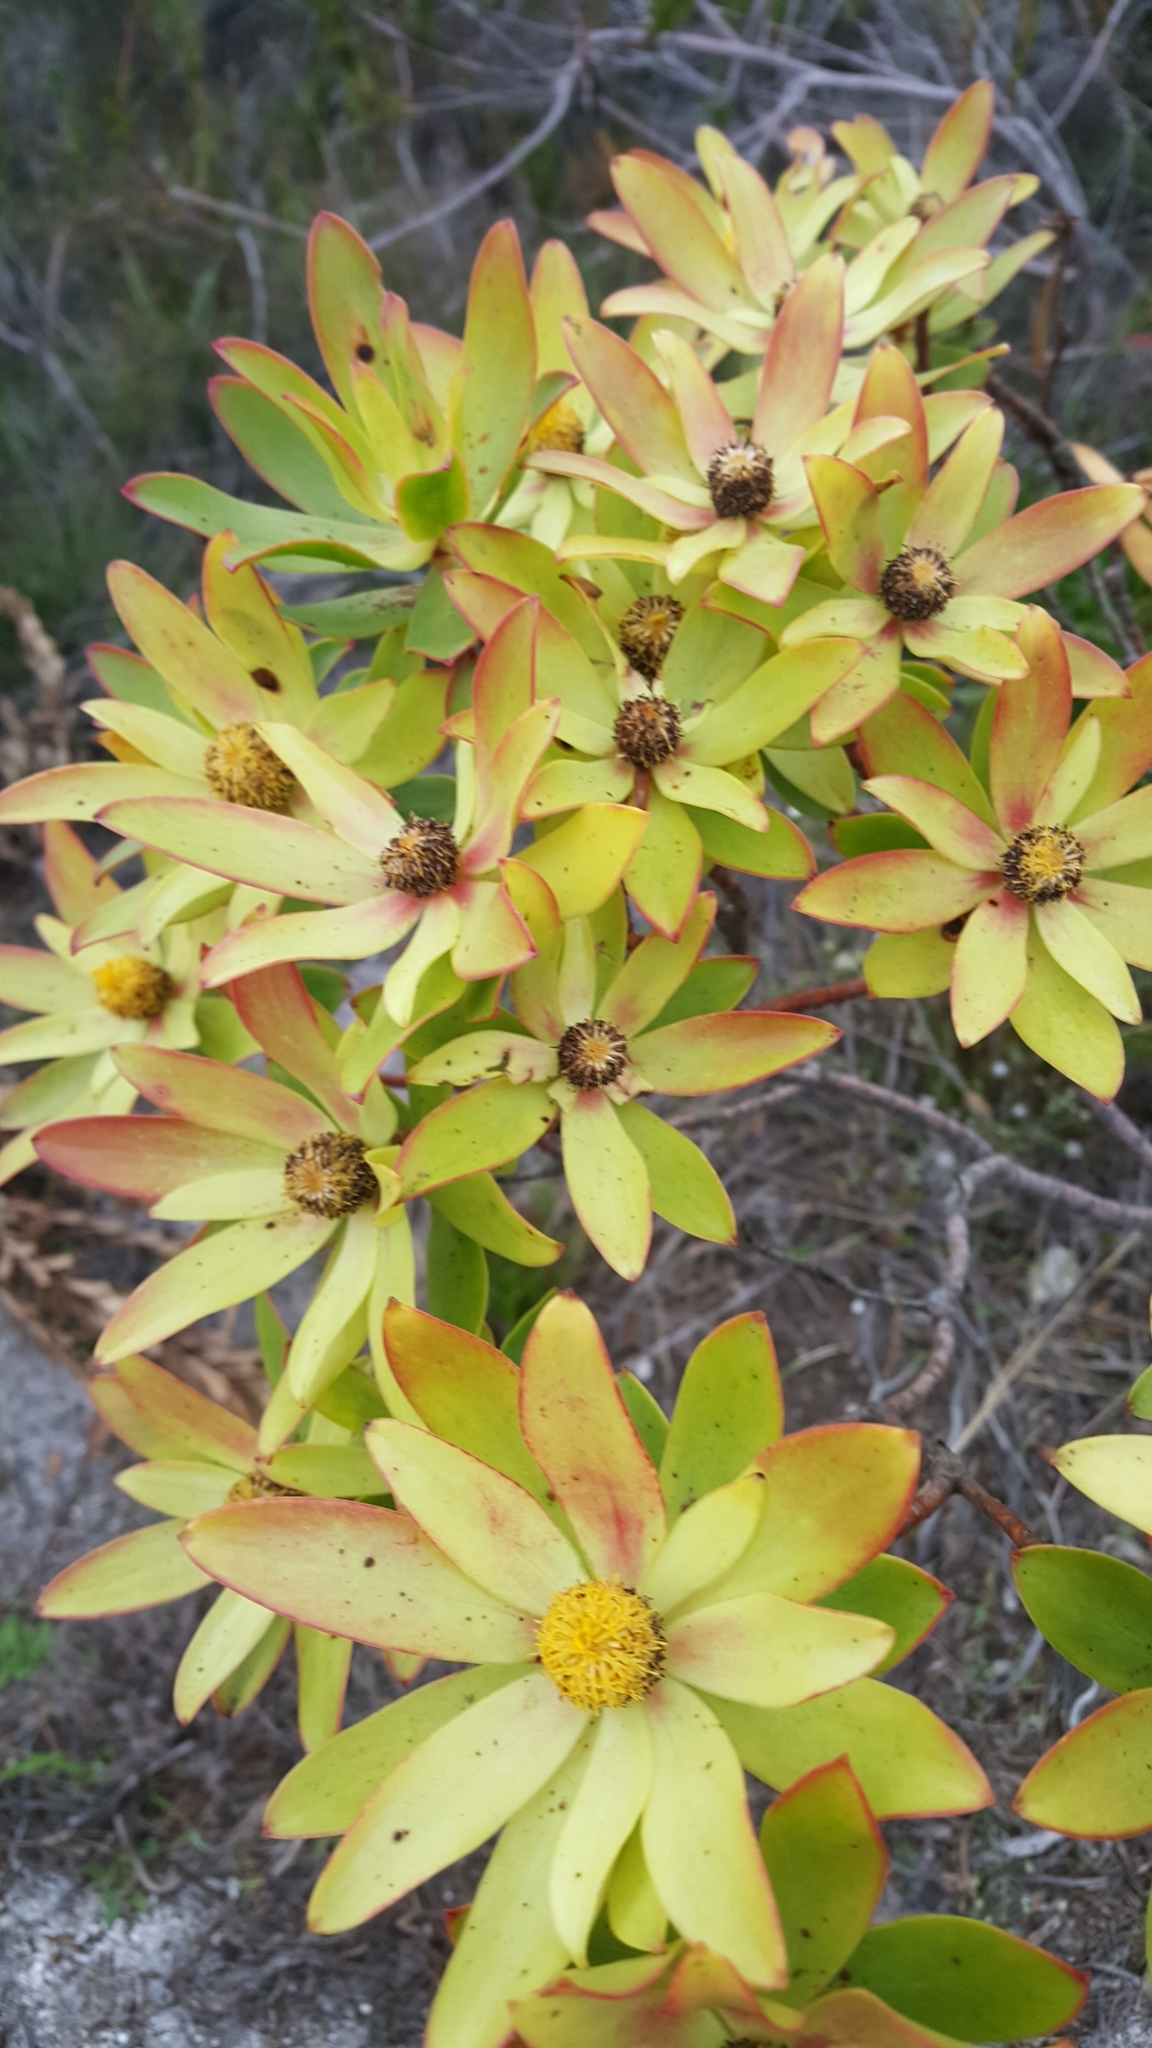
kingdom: Plantae
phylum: Tracheophyta
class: Magnoliopsida
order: Proteales
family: Proteaceae
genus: Leucadendron
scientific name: Leucadendron gandogeri
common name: Broad-leaf conebush
